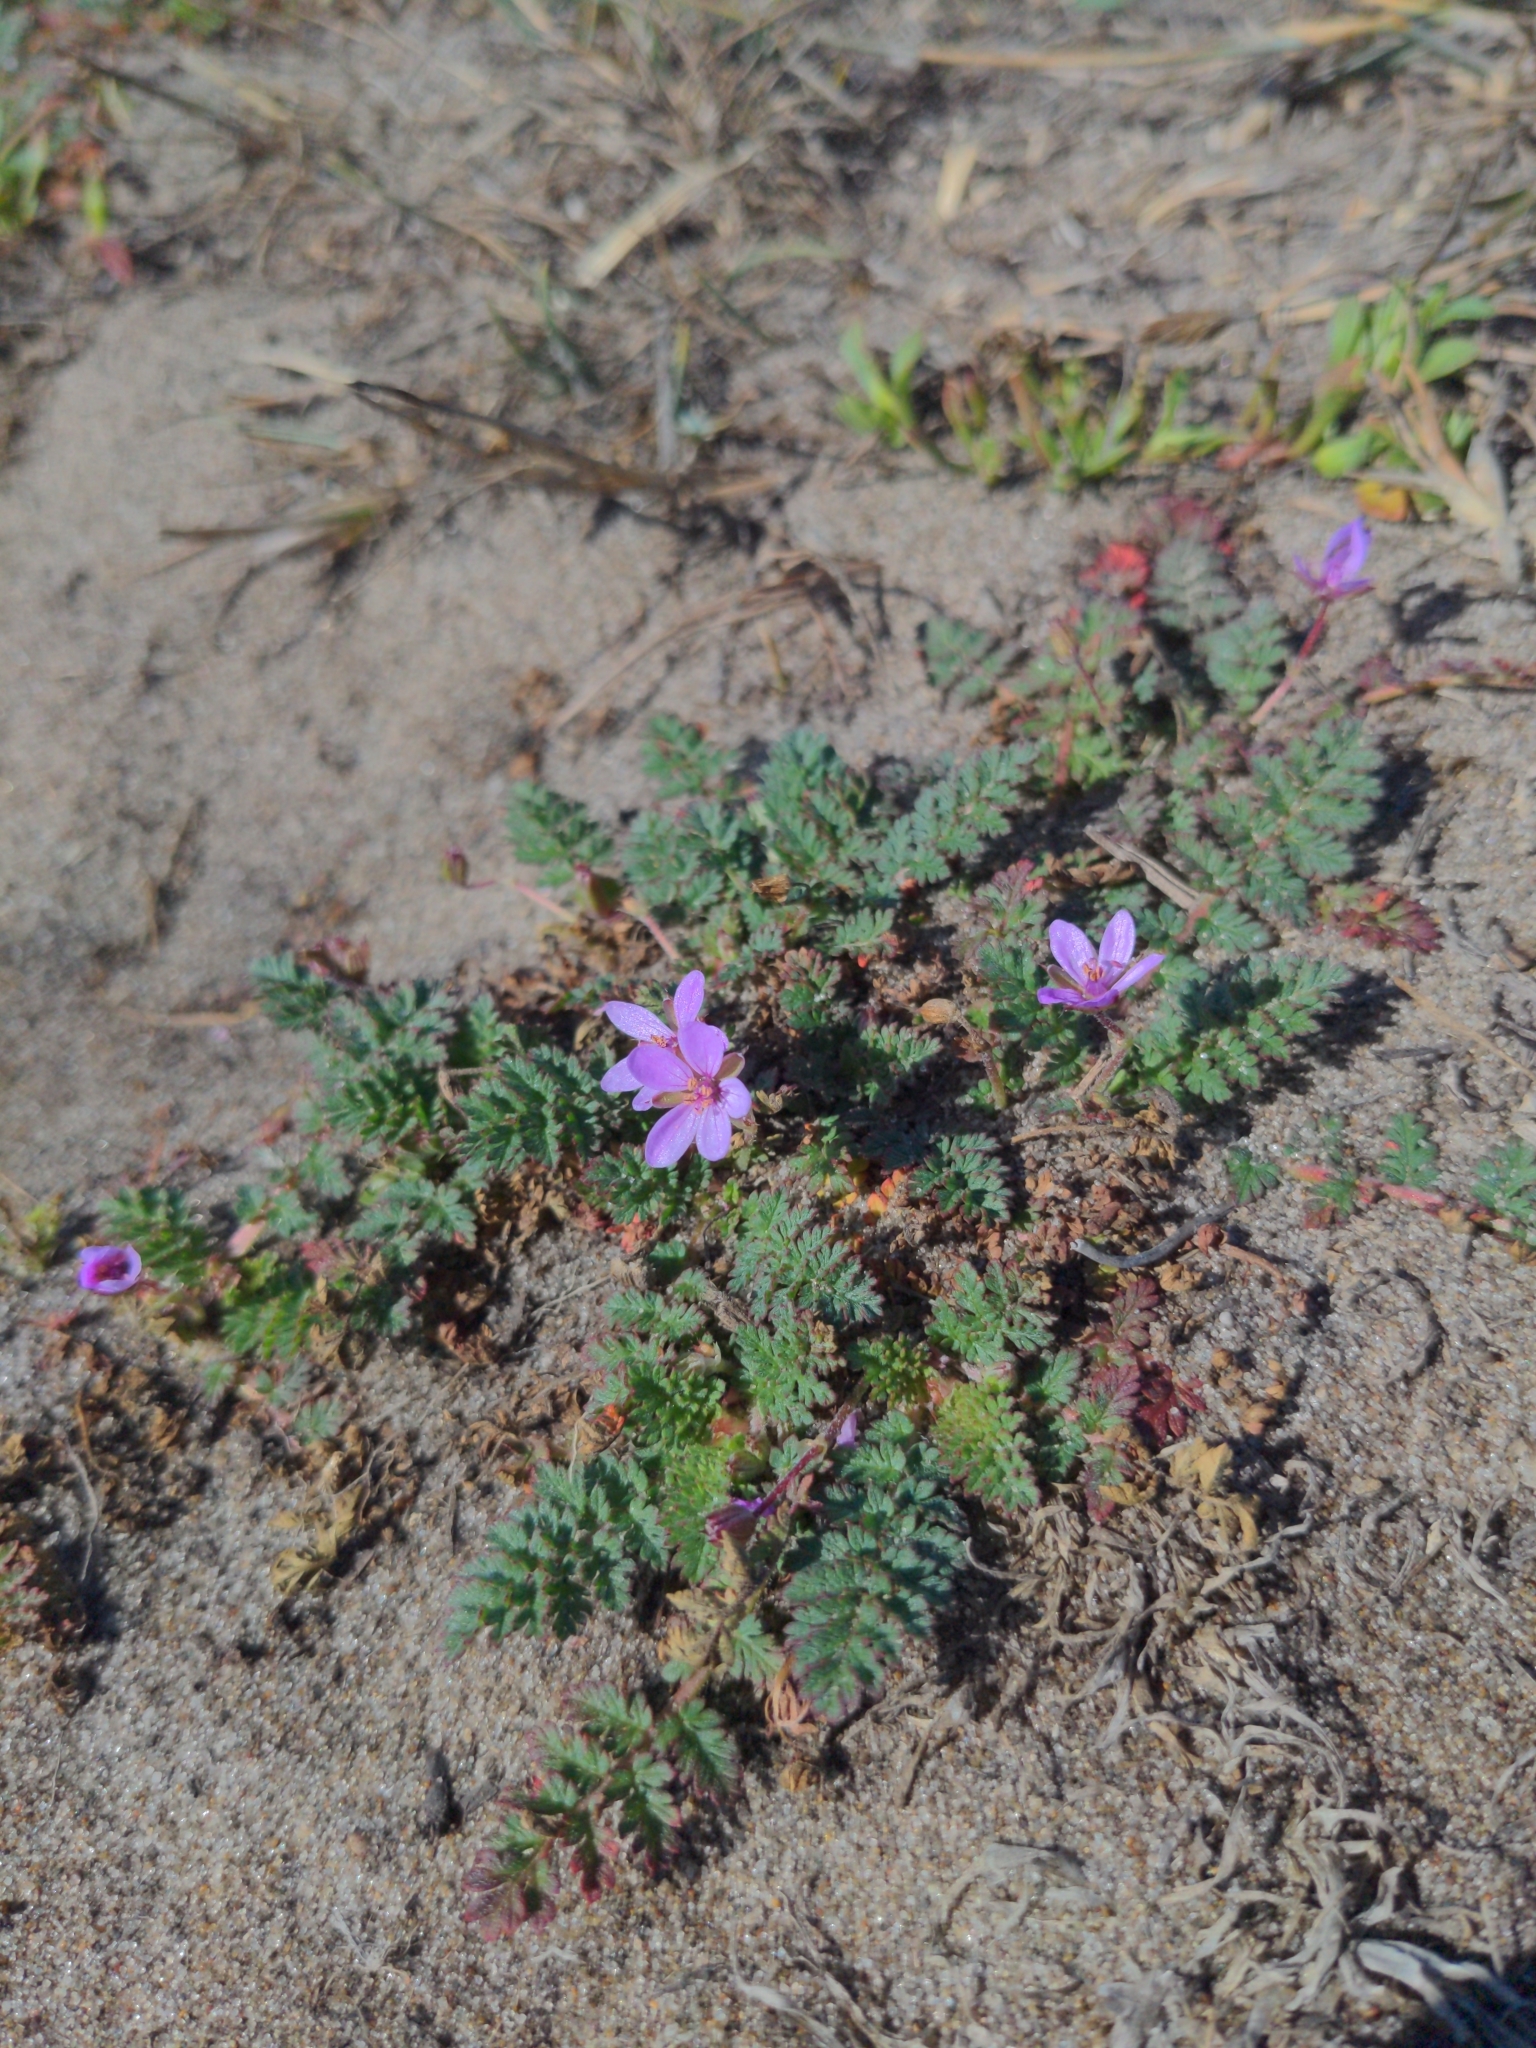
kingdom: Plantae
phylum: Tracheophyta
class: Magnoliopsida
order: Geraniales
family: Geraniaceae
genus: Erodium
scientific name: Erodium cicutarium
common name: Common stork's-bill
